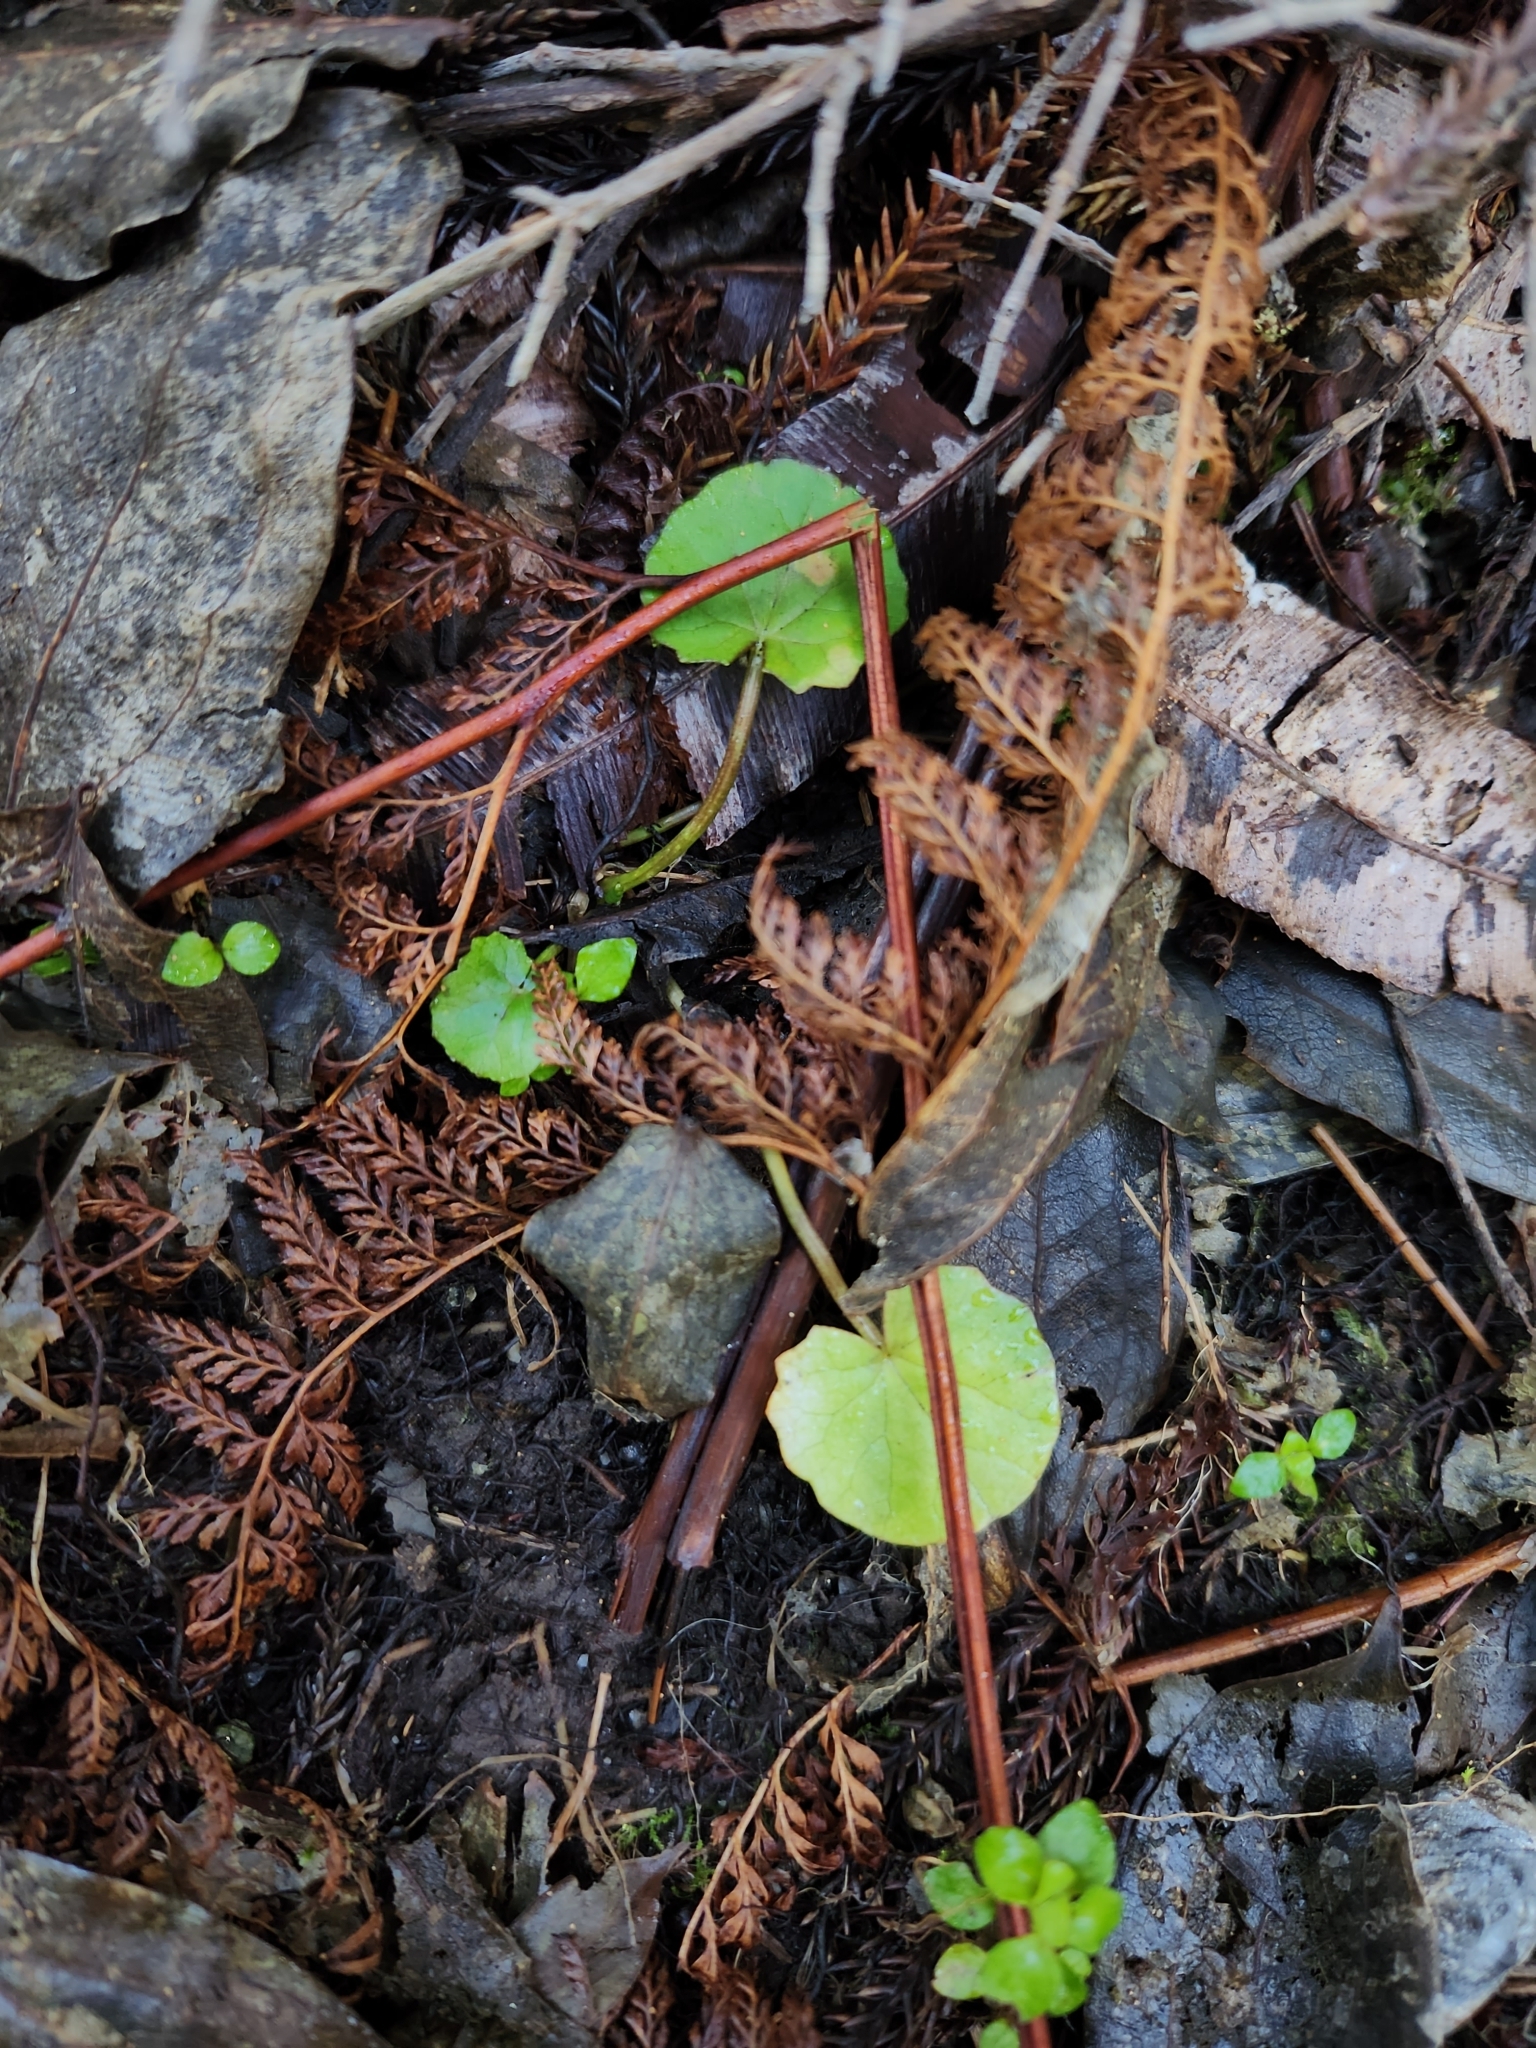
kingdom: Plantae
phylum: Tracheophyta
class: Magnoliopsida
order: Apiales
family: Apiaceae
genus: Centella
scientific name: Centella uniflora
